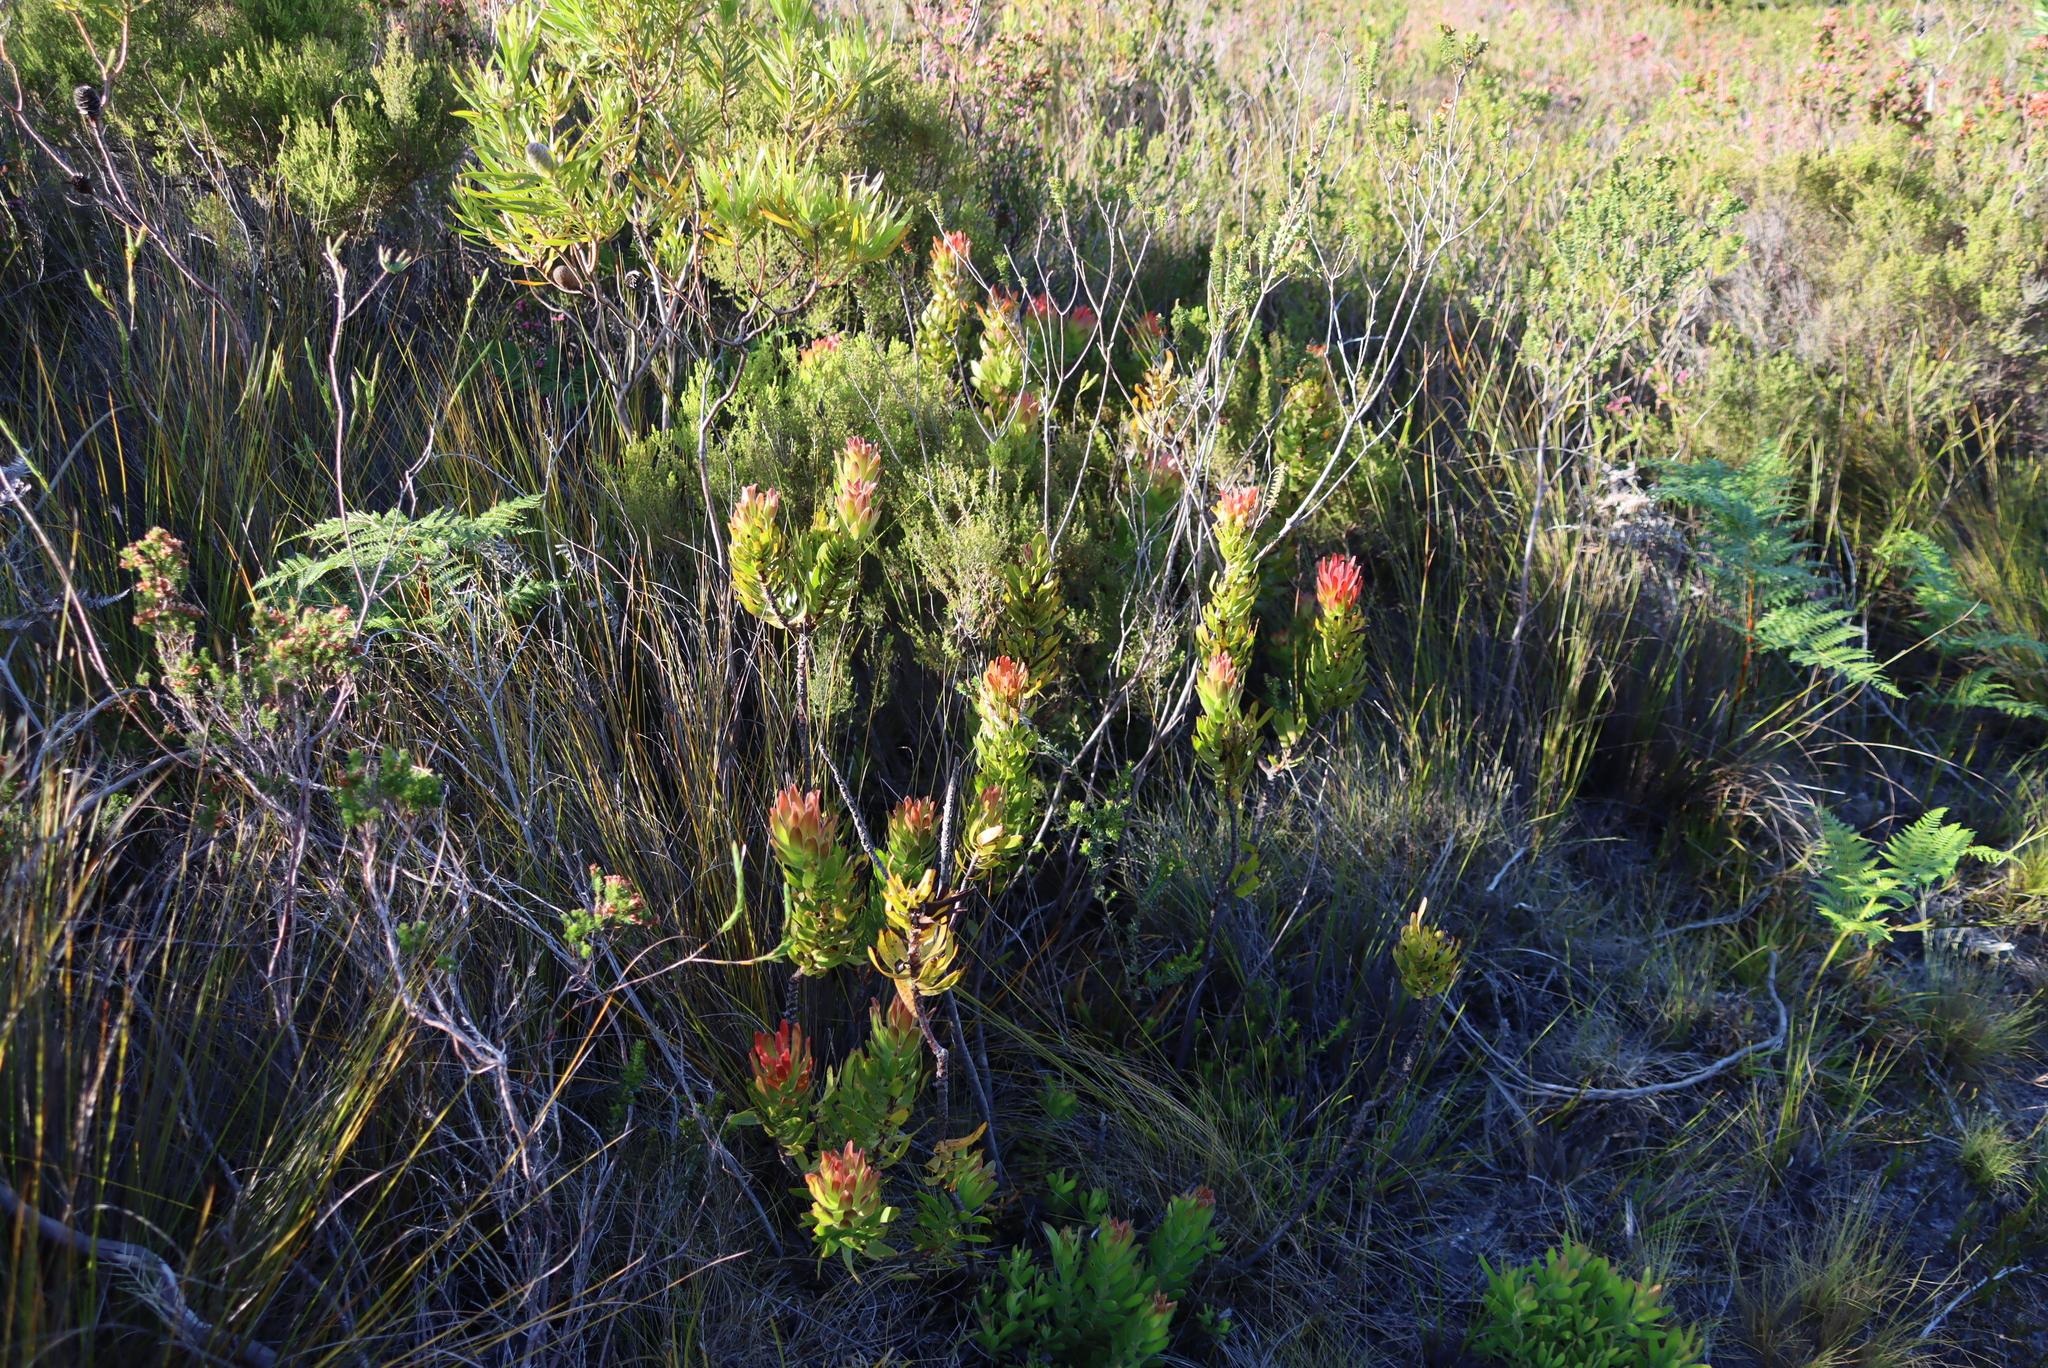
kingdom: Plantae
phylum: Tracheophyta
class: Magnoliopsida
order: Proteales
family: Proteaceae
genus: Mimetes
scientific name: Mimetes cucullatus
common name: Common pagoda
